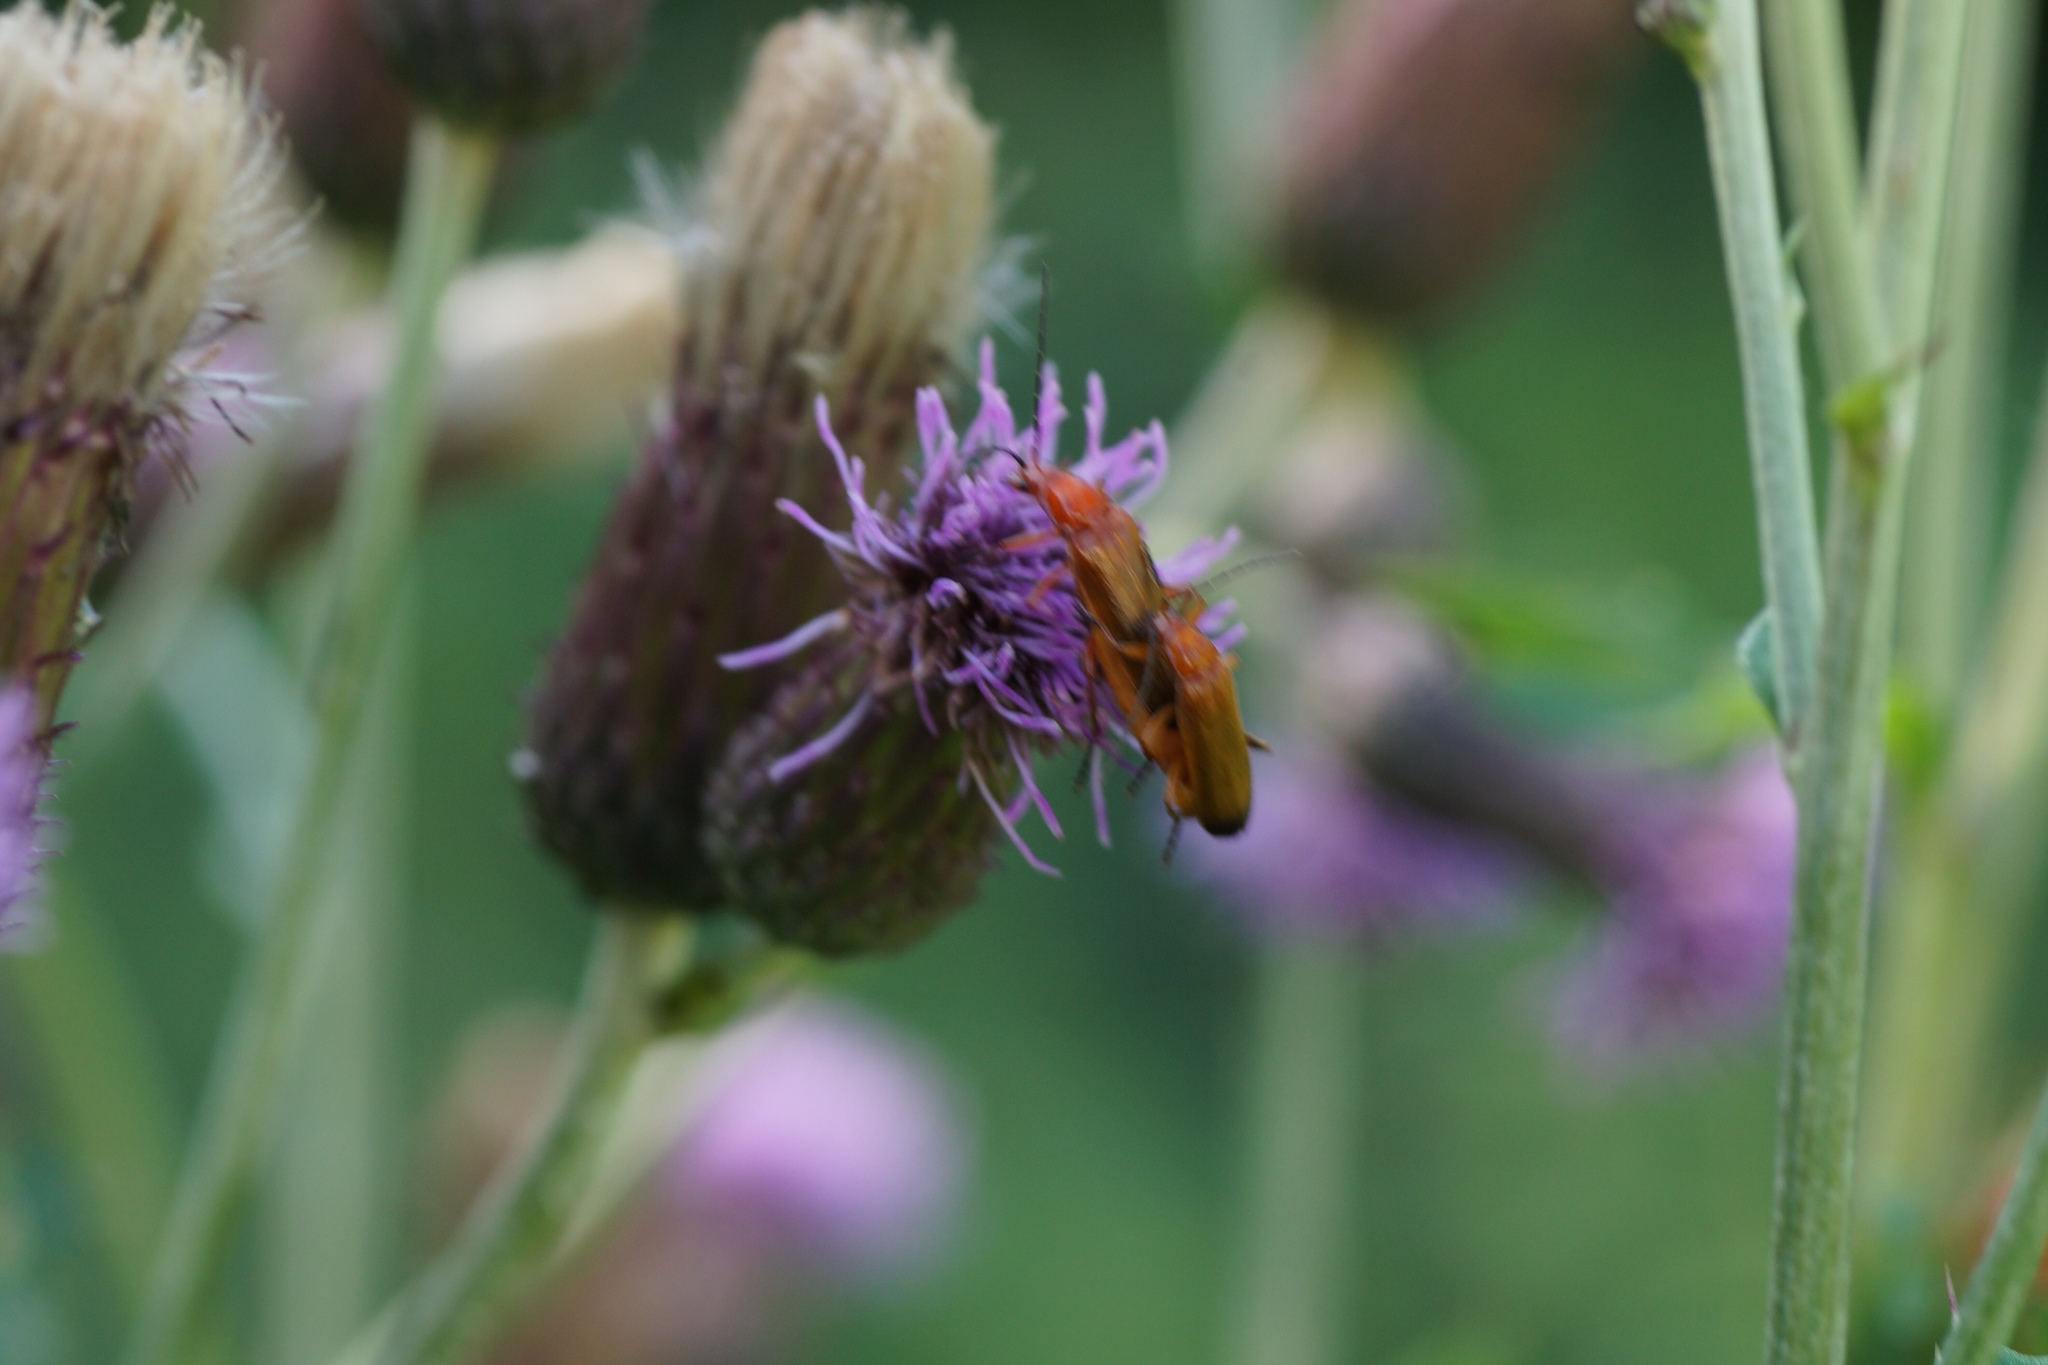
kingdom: Animalia
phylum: Arthropoda
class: Insecta
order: Coleoptera
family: Cantharidae
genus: Rhagonycha
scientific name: Rhagonycha fulva
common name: Common red soldier beetle
